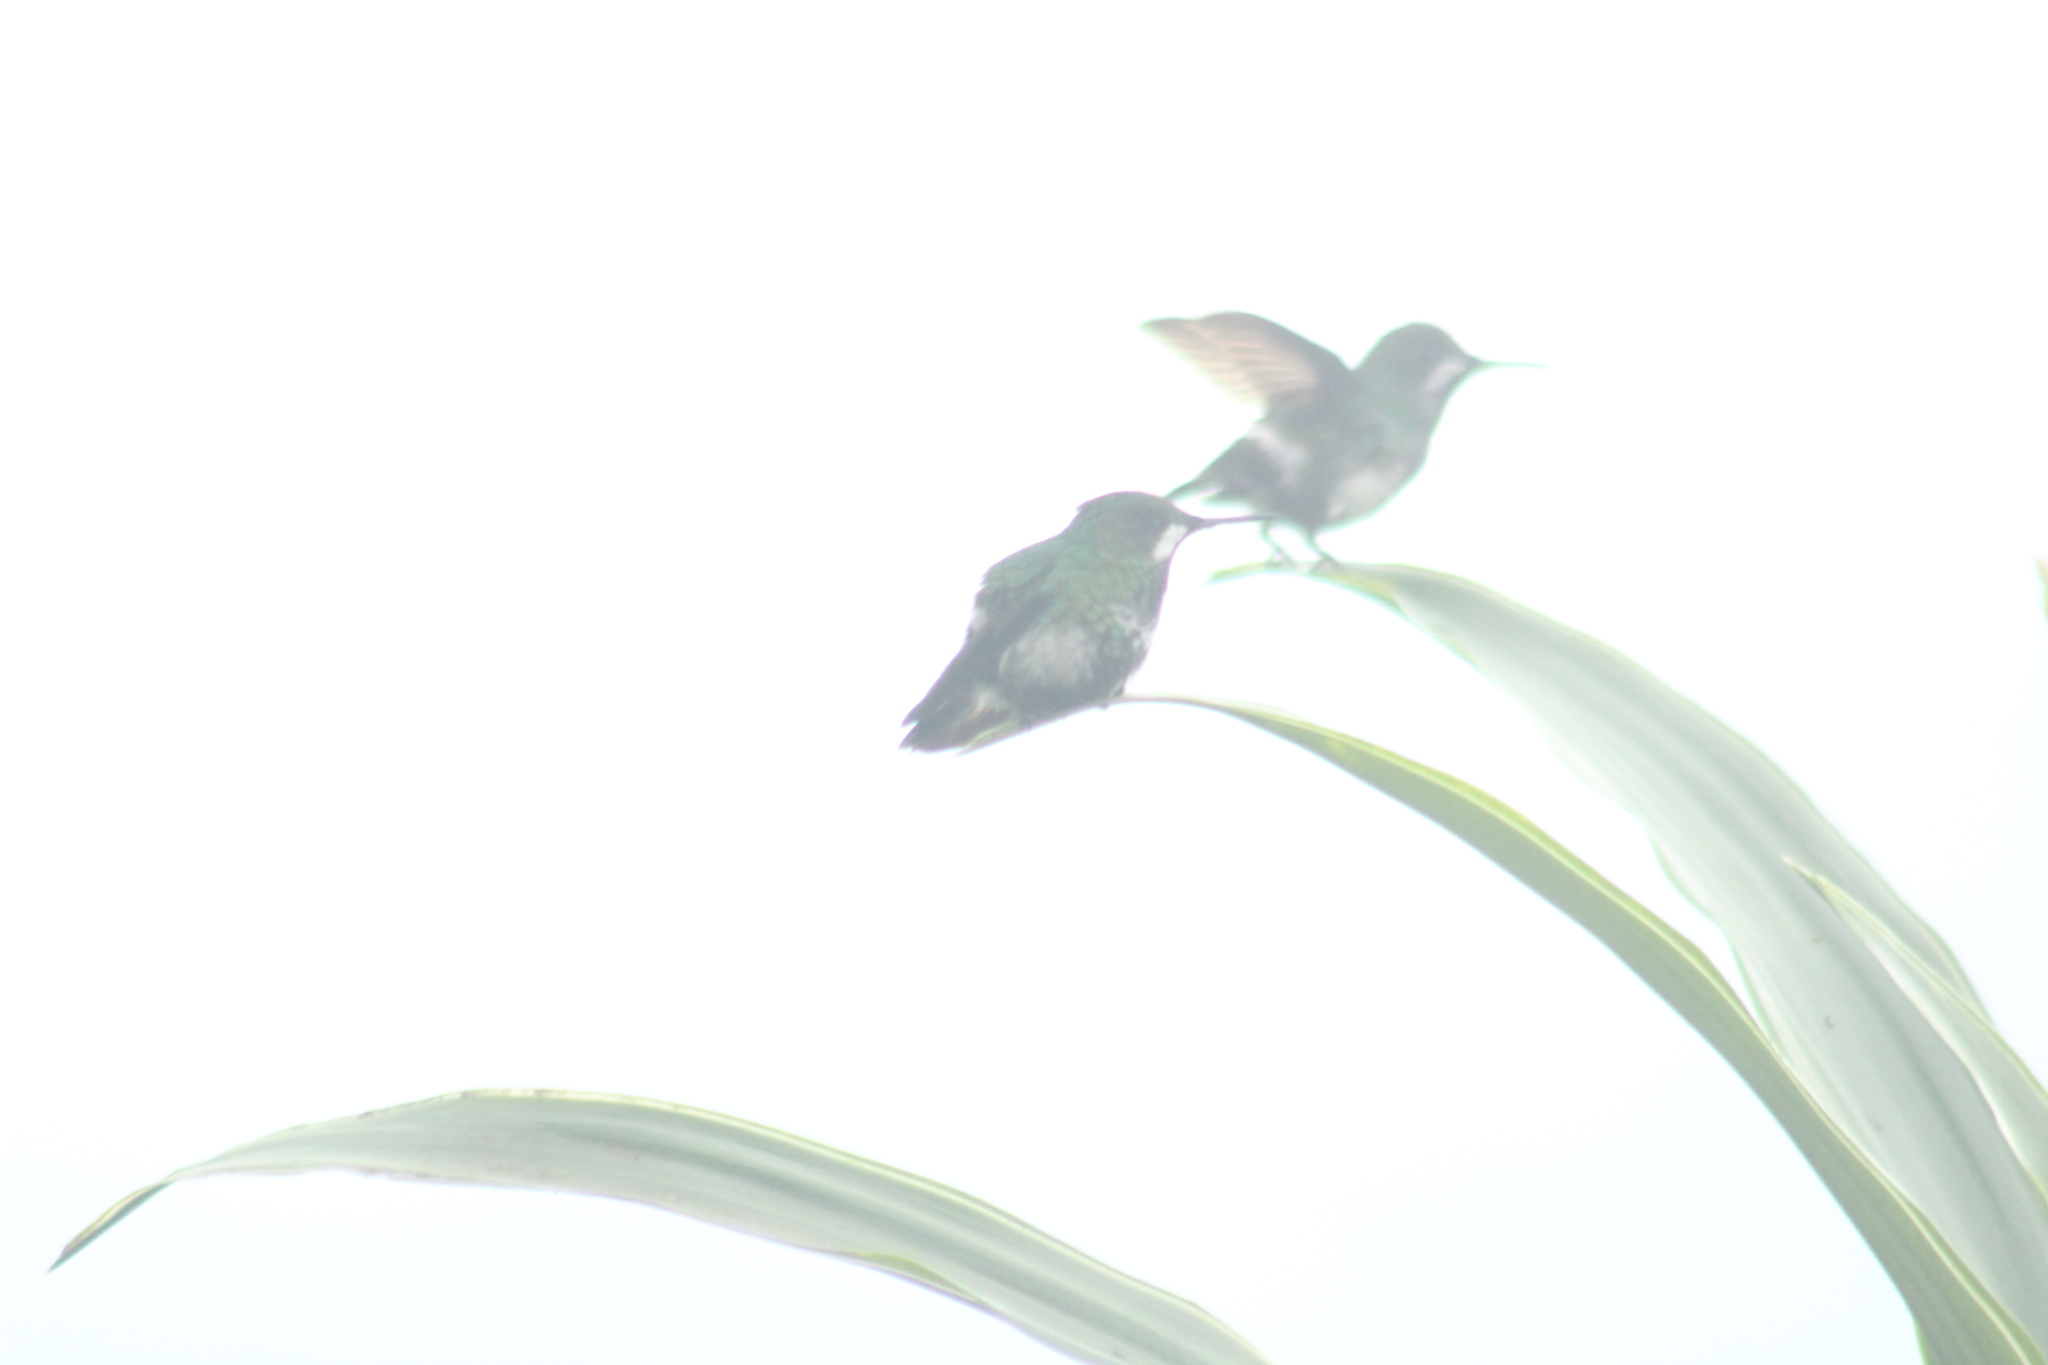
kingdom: Animalia
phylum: Chordata
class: Aves
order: Apodiformes
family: Trochilidae
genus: Discosura
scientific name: Discosura conversii
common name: Green thorntail
